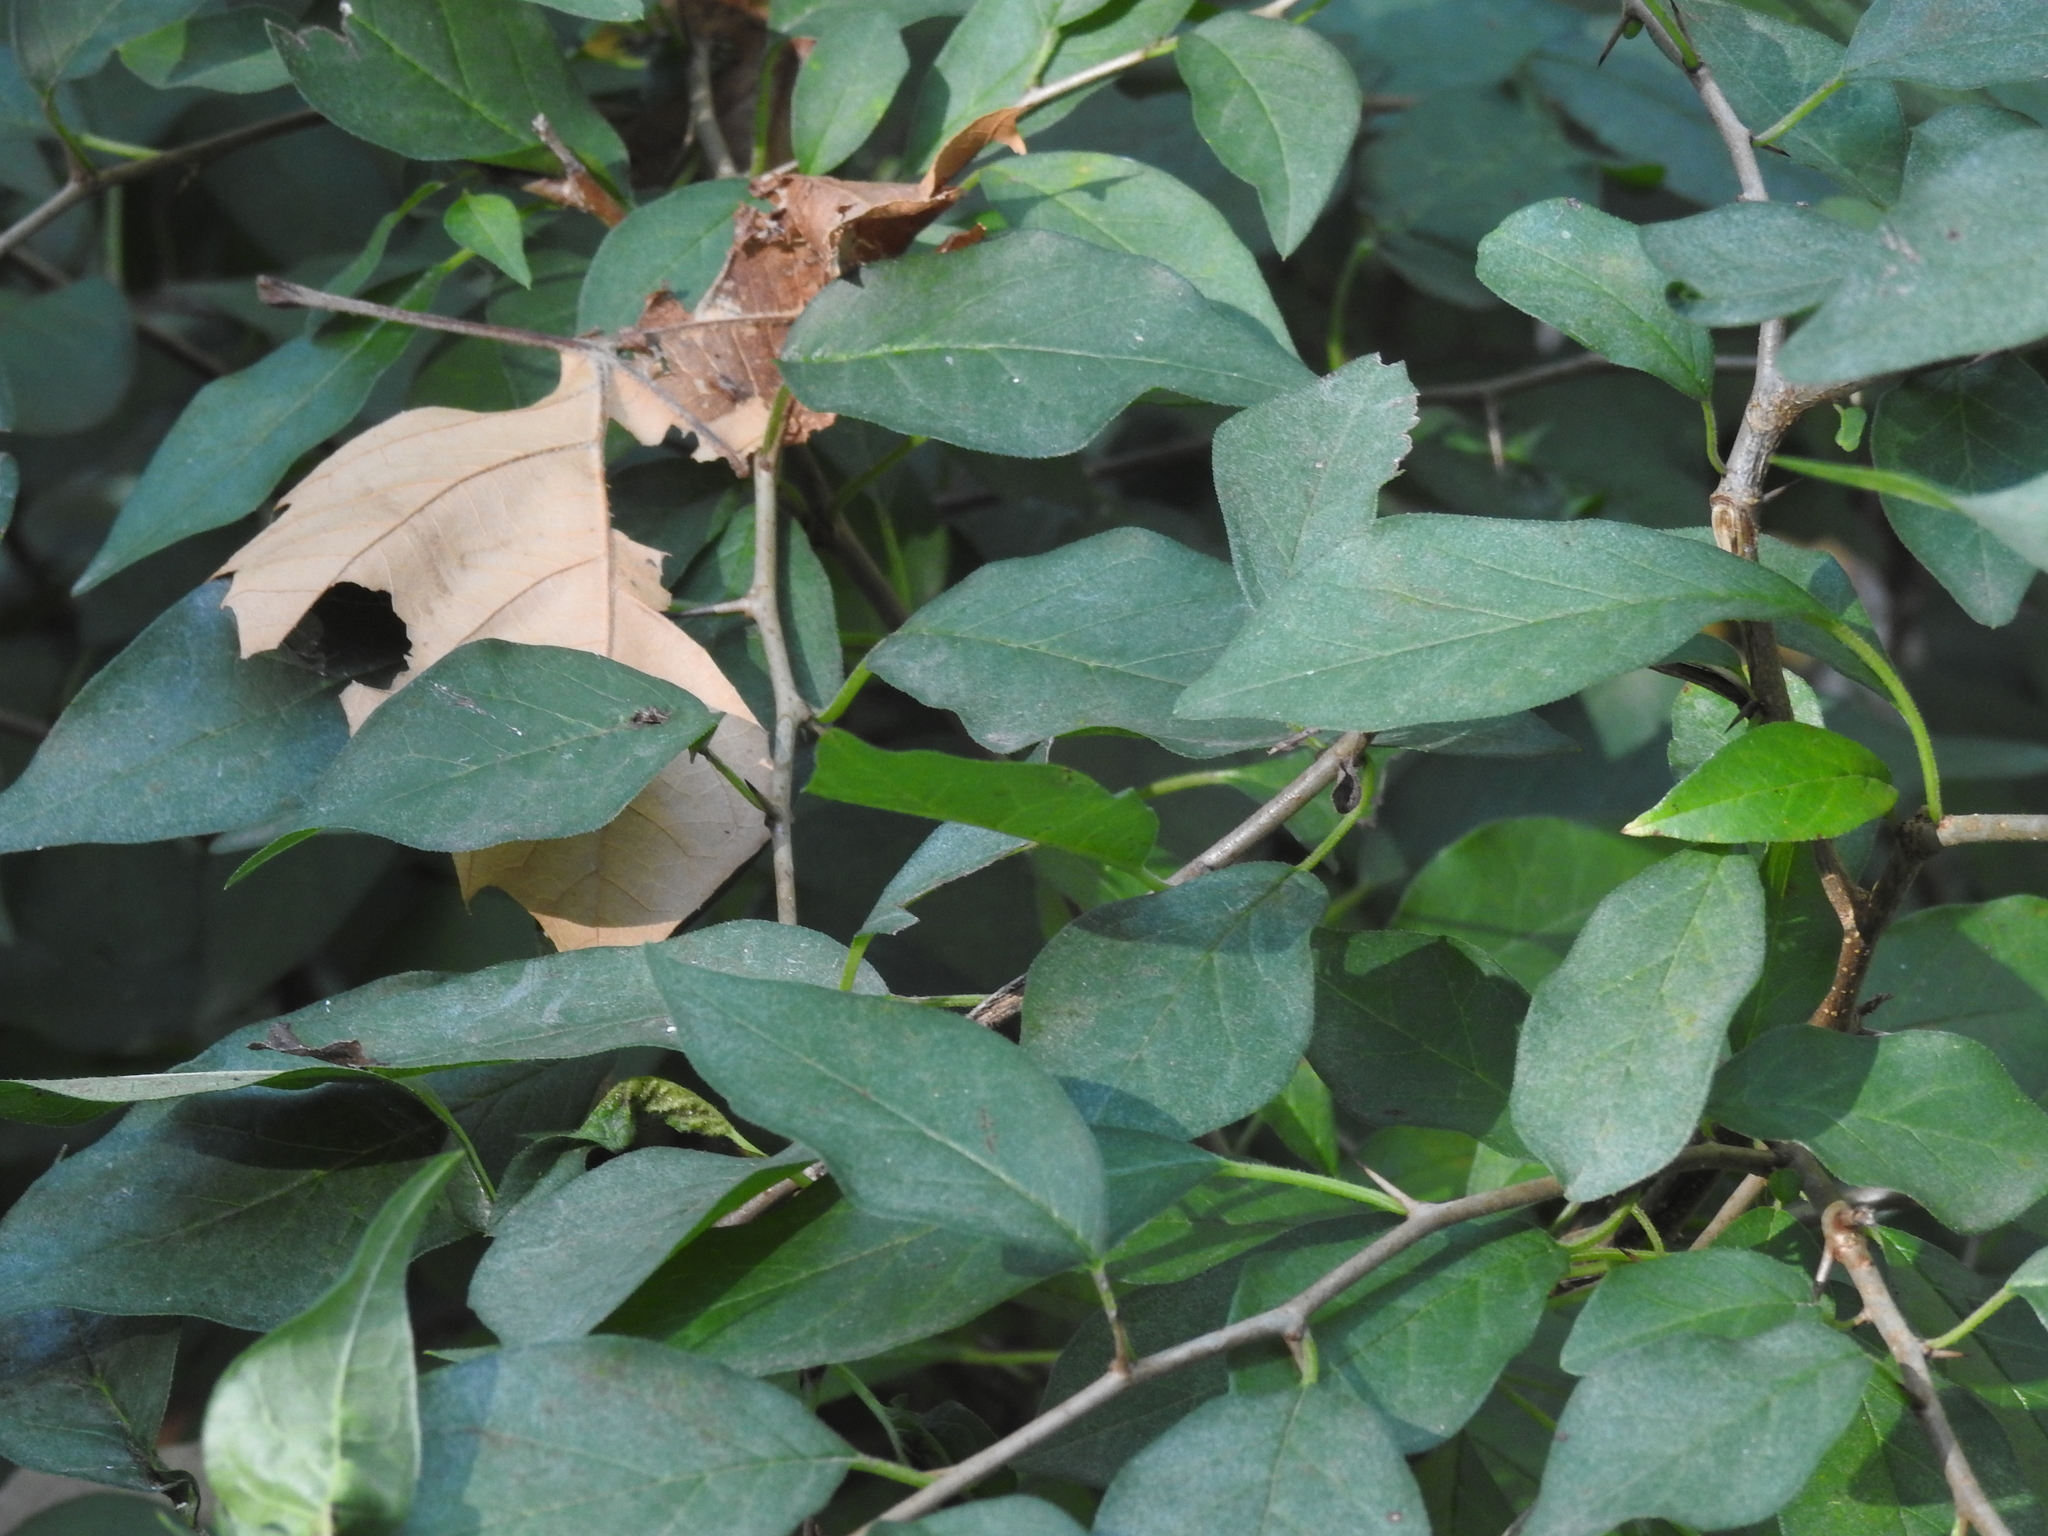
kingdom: Plantae
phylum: Tracheophyta
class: Magnoliopsida
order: Rosales
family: Moraceae
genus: Maclura
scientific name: Maclura pomifera
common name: Osage-orange
